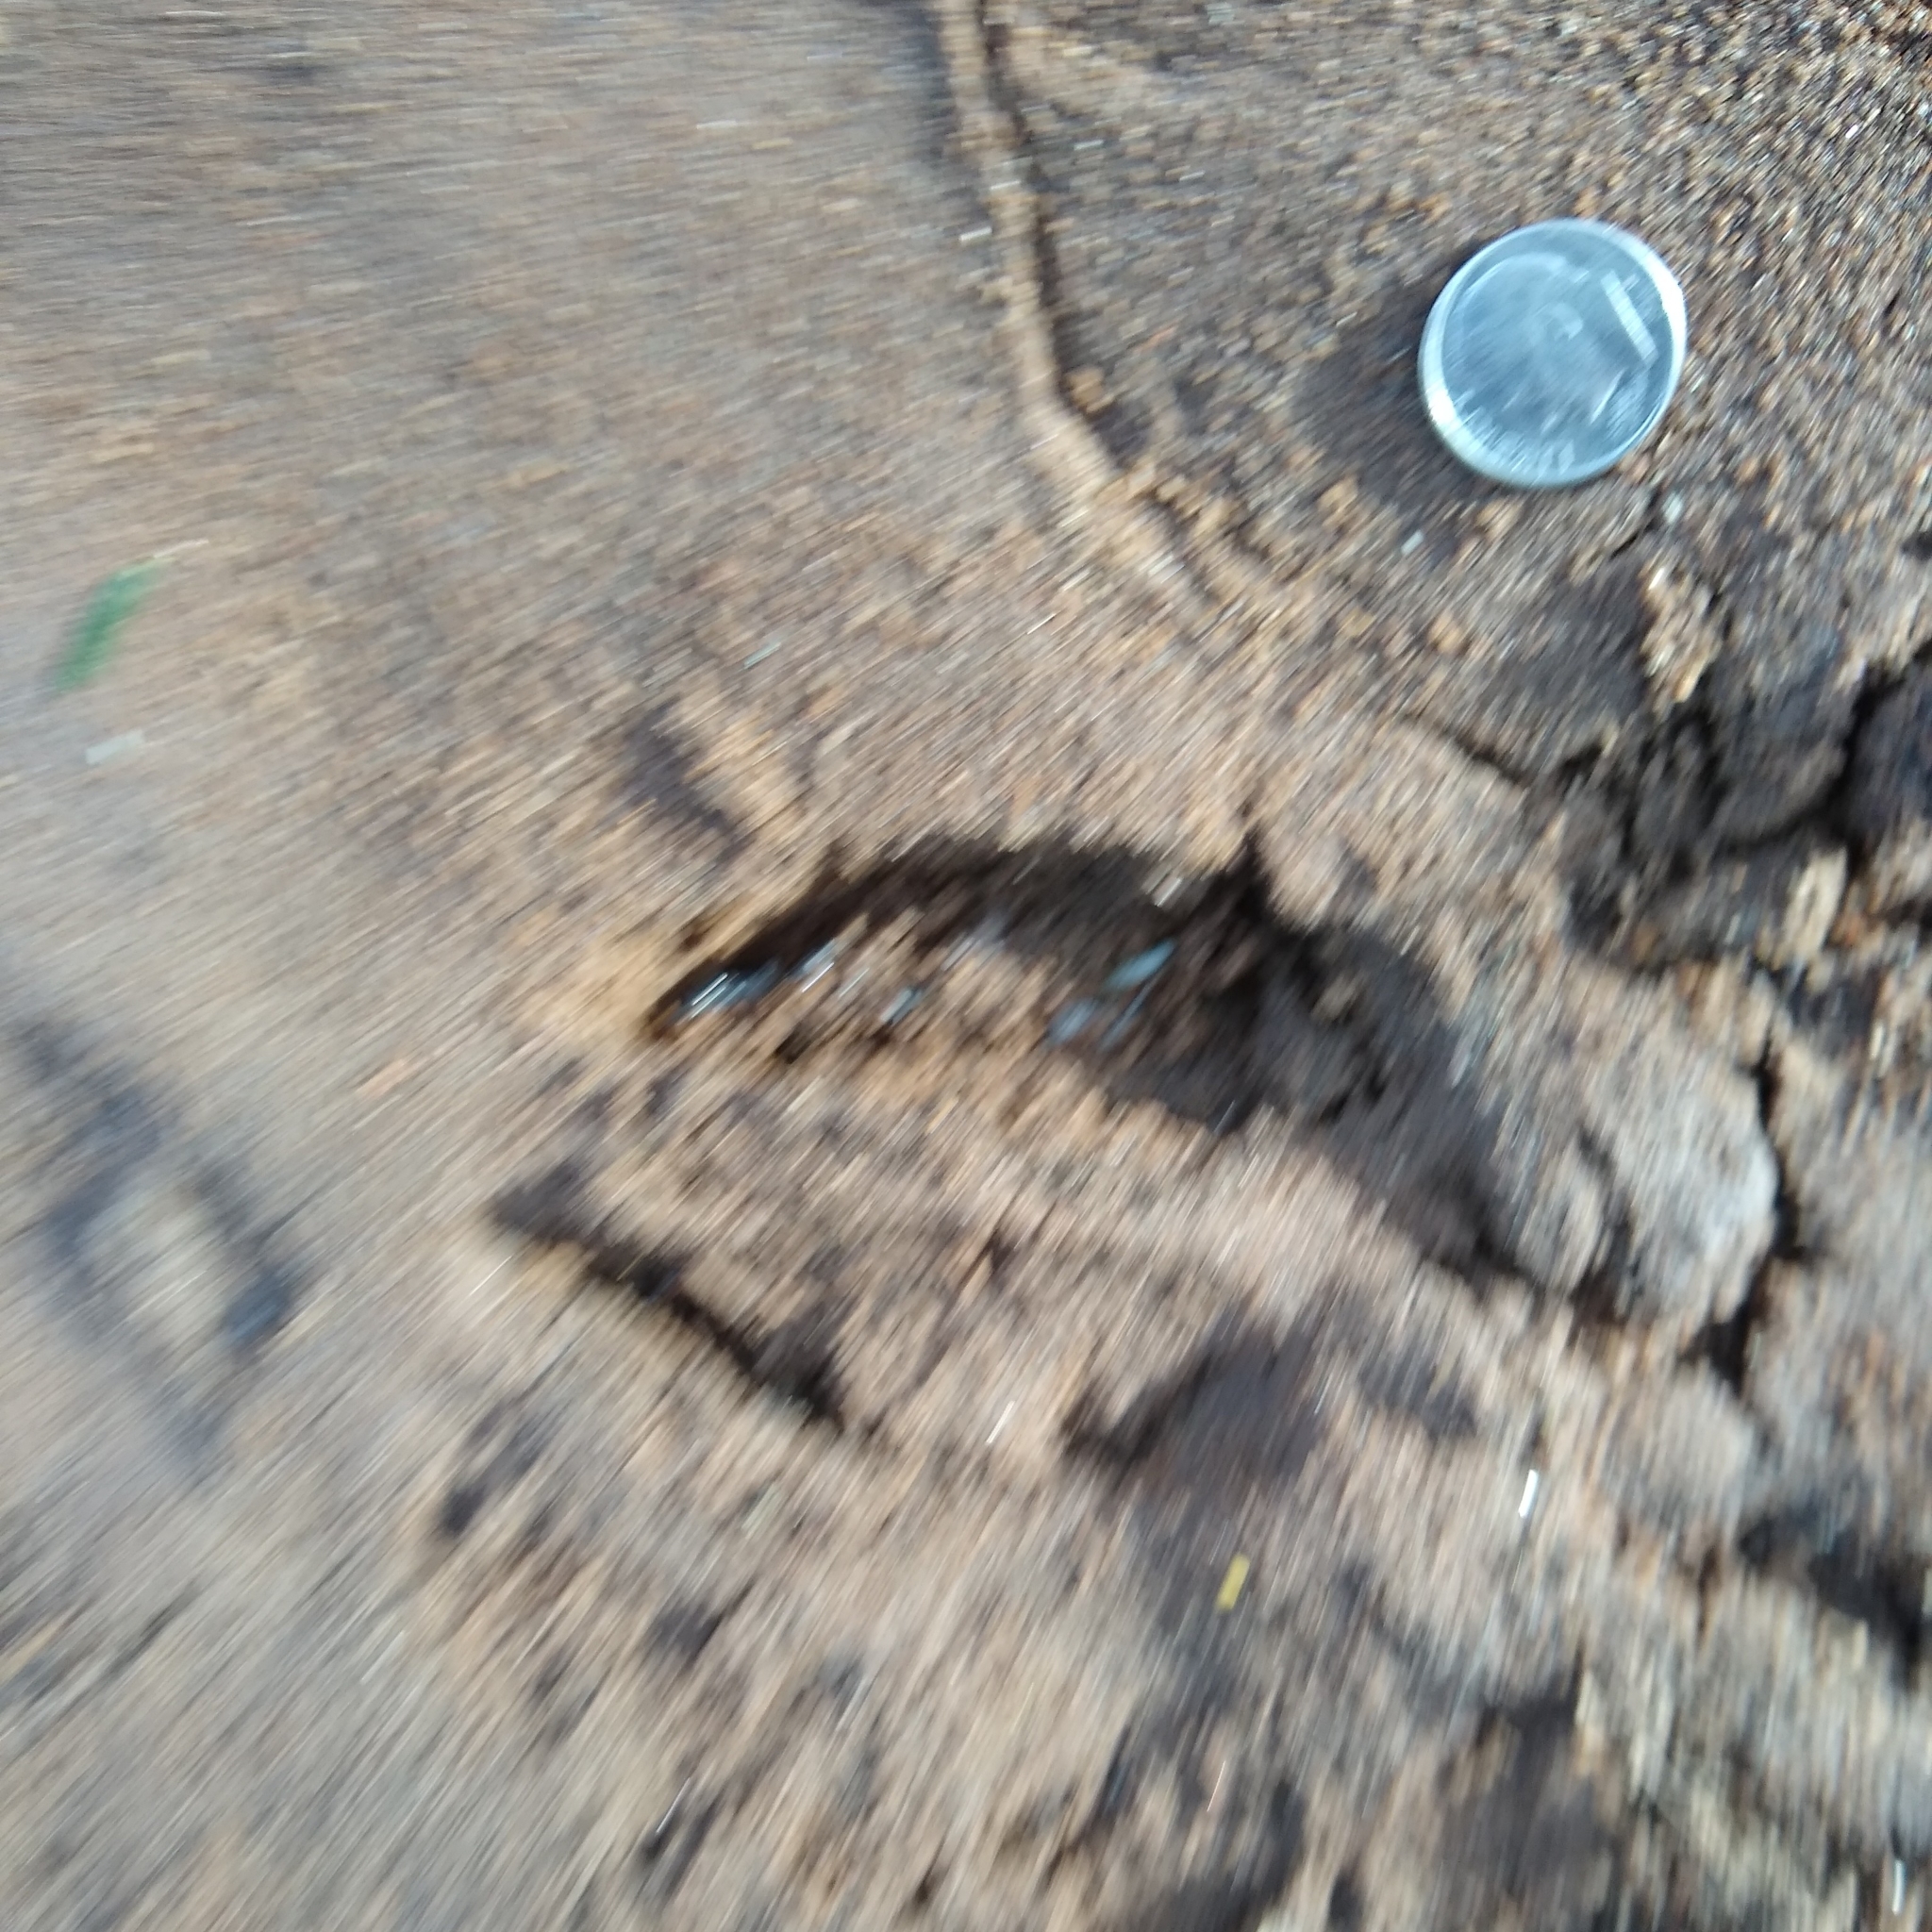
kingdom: Animalia
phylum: Chordata
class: Mammalia
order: Artiodactyla
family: Cervidae
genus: Odocoileus
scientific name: Odocoileus virginianus
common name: White-tailed deer
